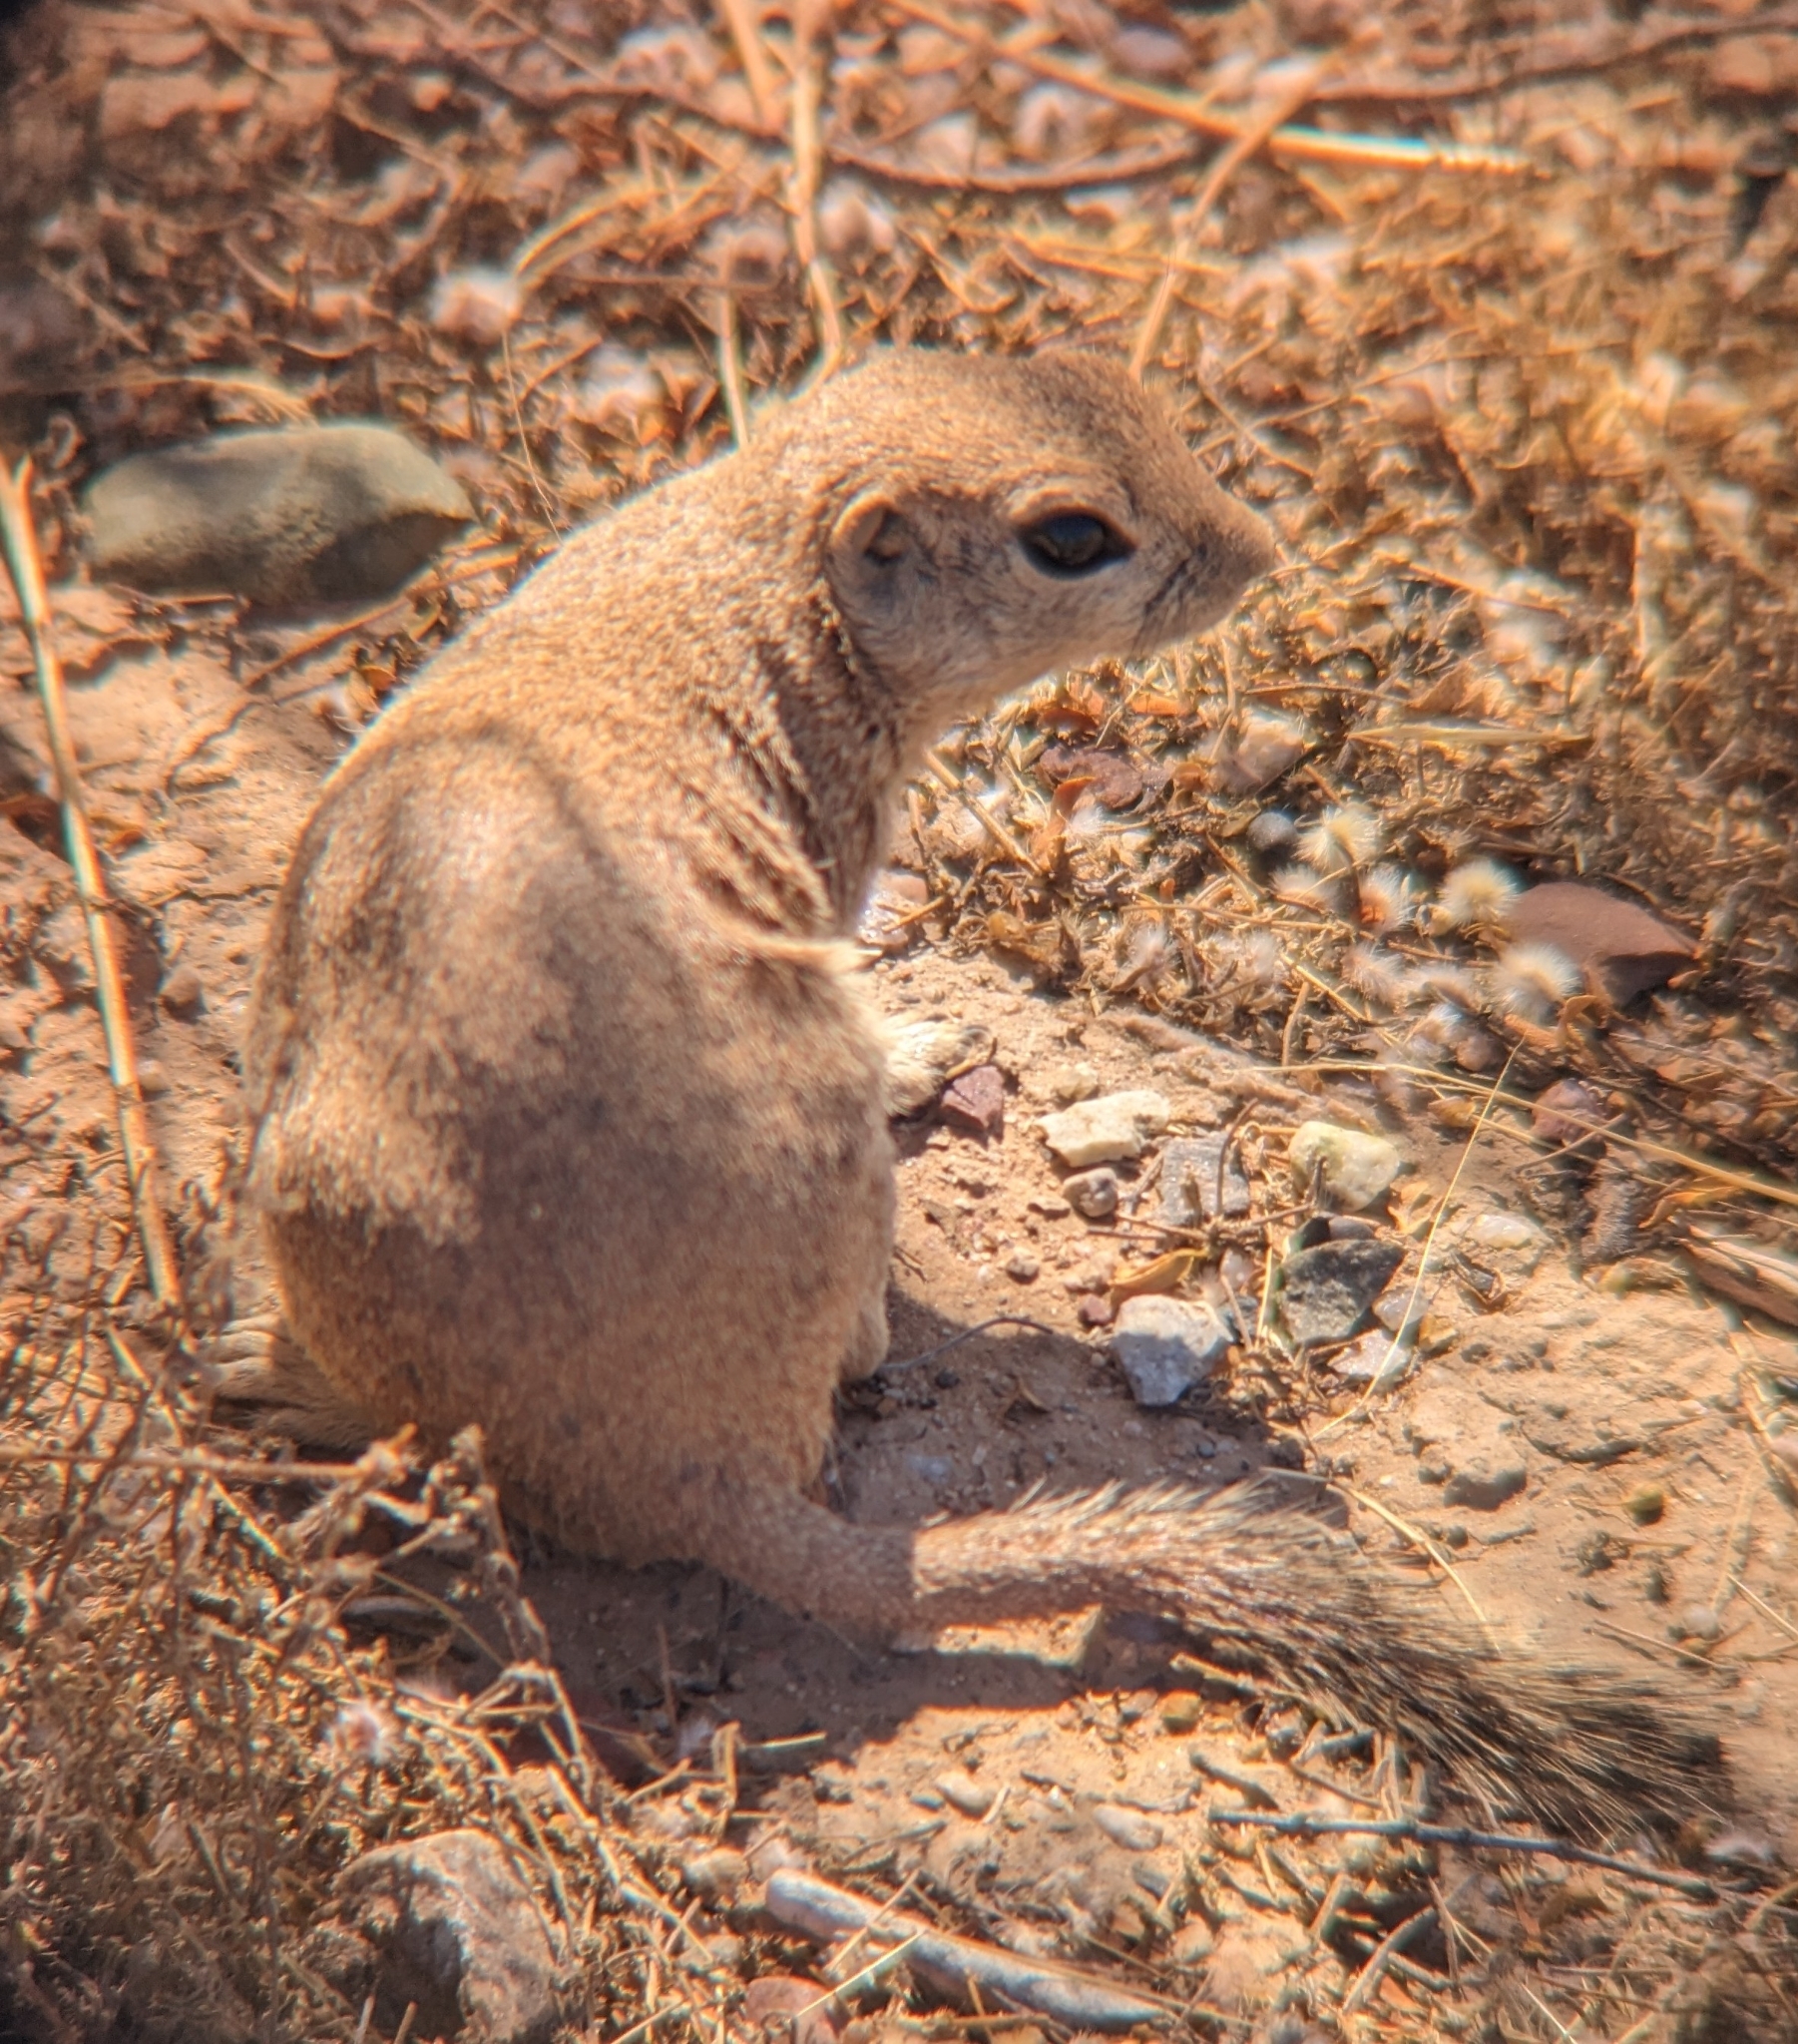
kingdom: Animalia
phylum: Chordata
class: Mammalia
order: Rodentia
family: Sciuridae
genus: Xerospermophilus
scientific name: Xerospermophilus tereticaudus
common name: Round-tailed ground squirrel
